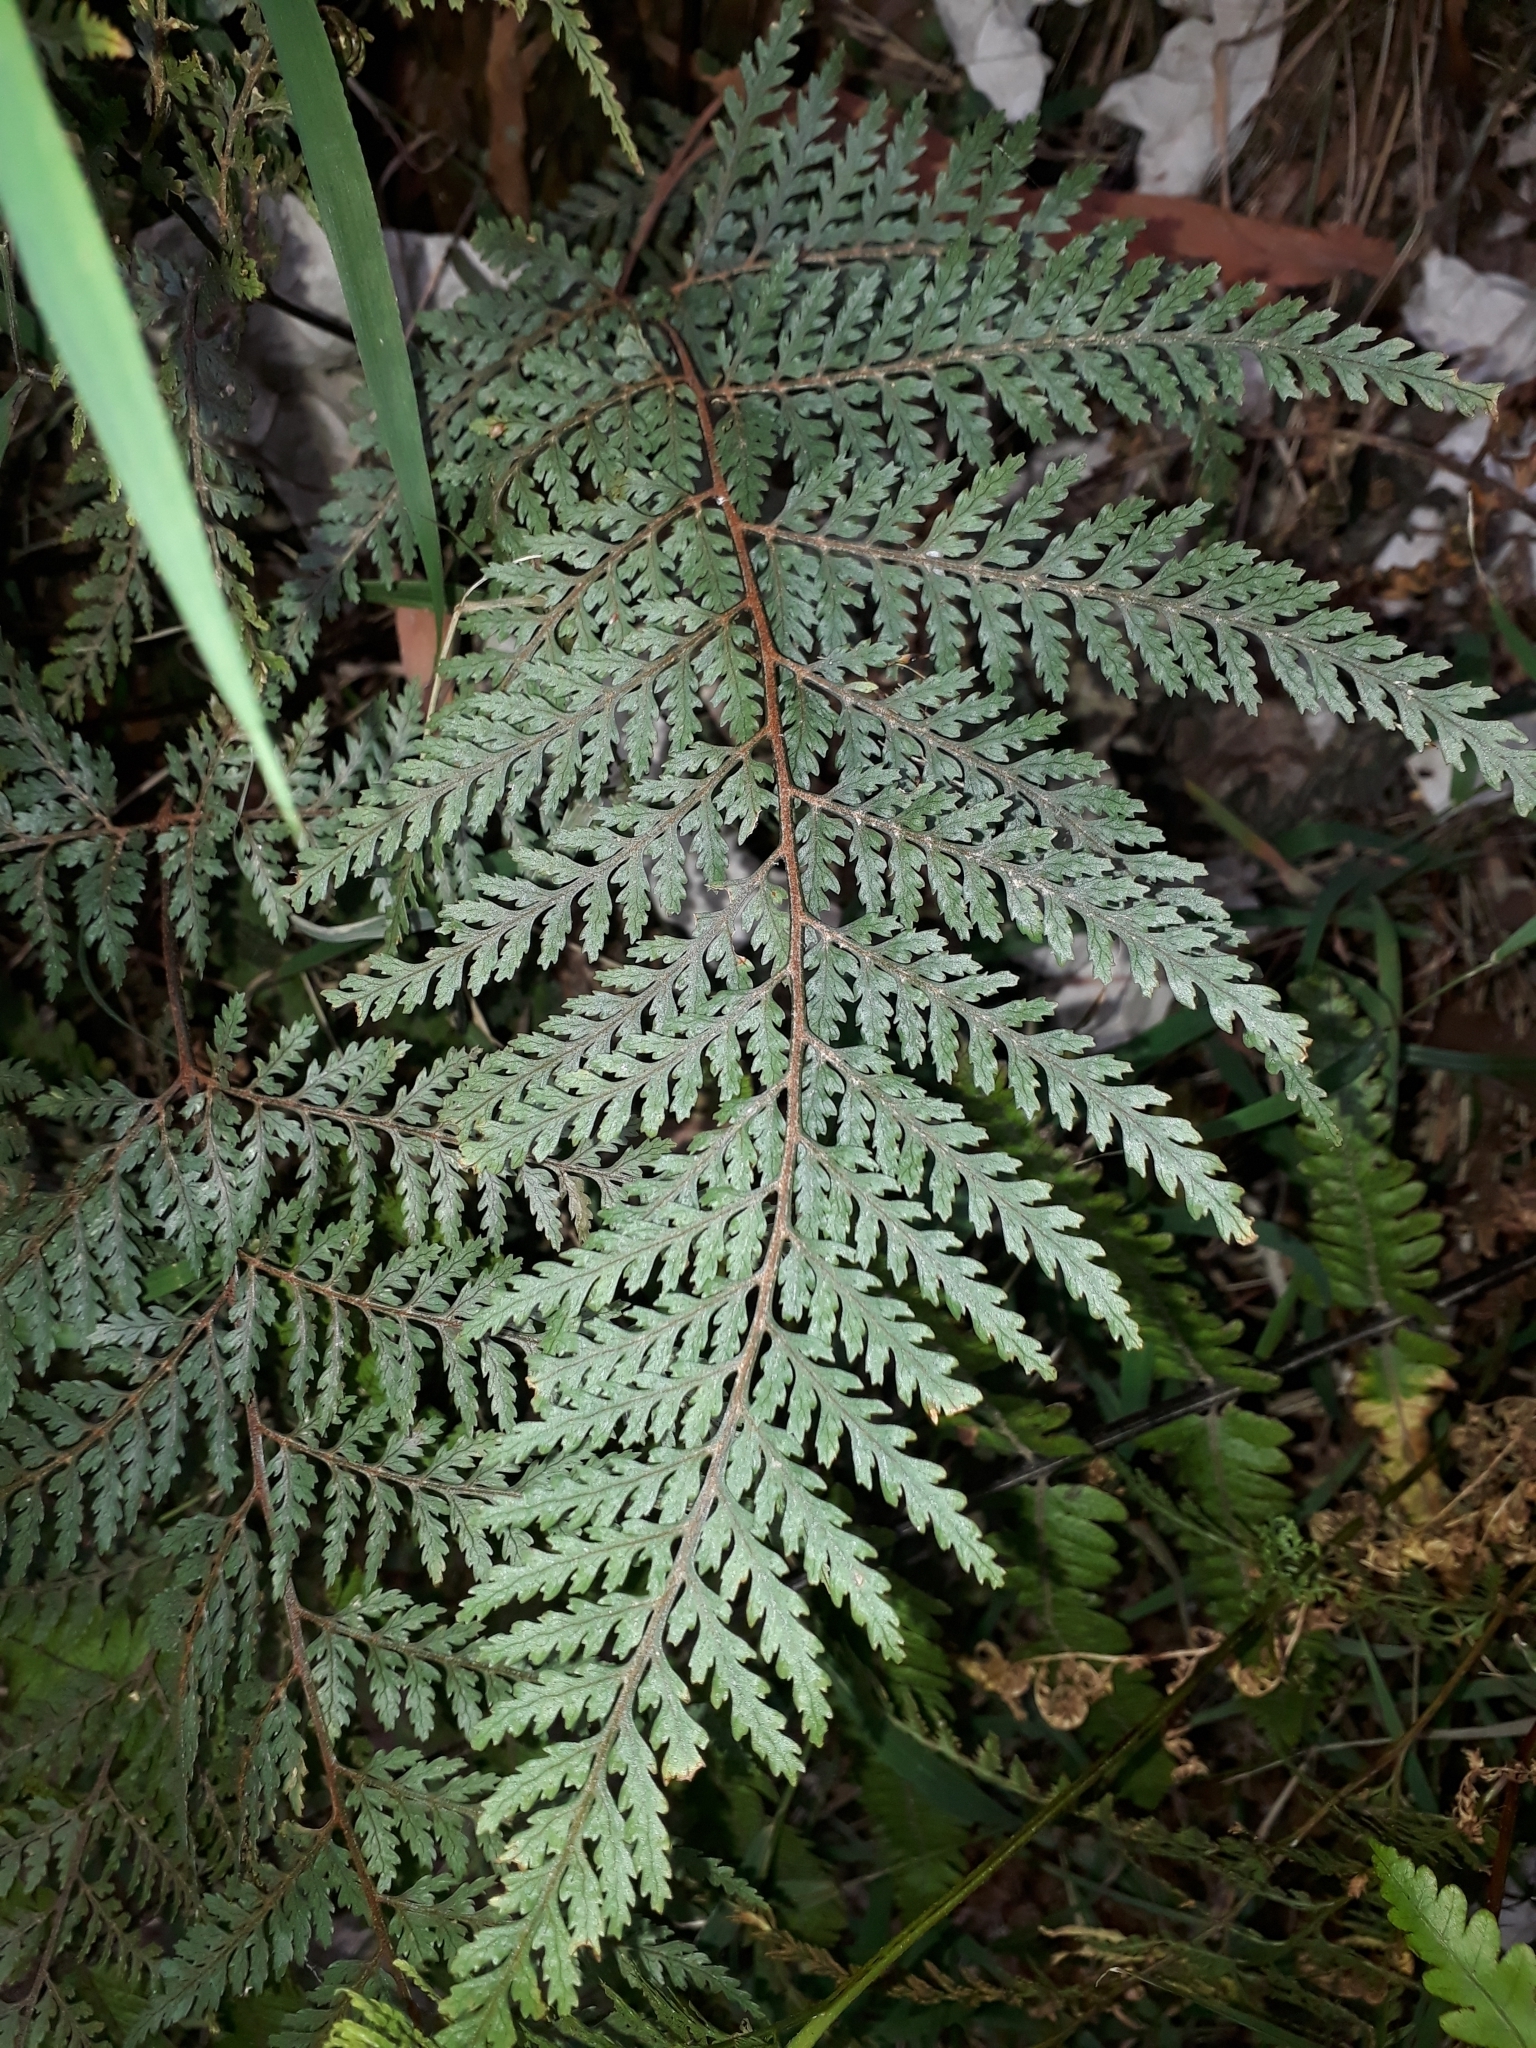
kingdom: Plantae
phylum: Tracheophyta
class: Polypodiopsida
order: Polypodiales
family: Dryopteridaceae
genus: Parapolystichum
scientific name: Parapolystichum glabellum
